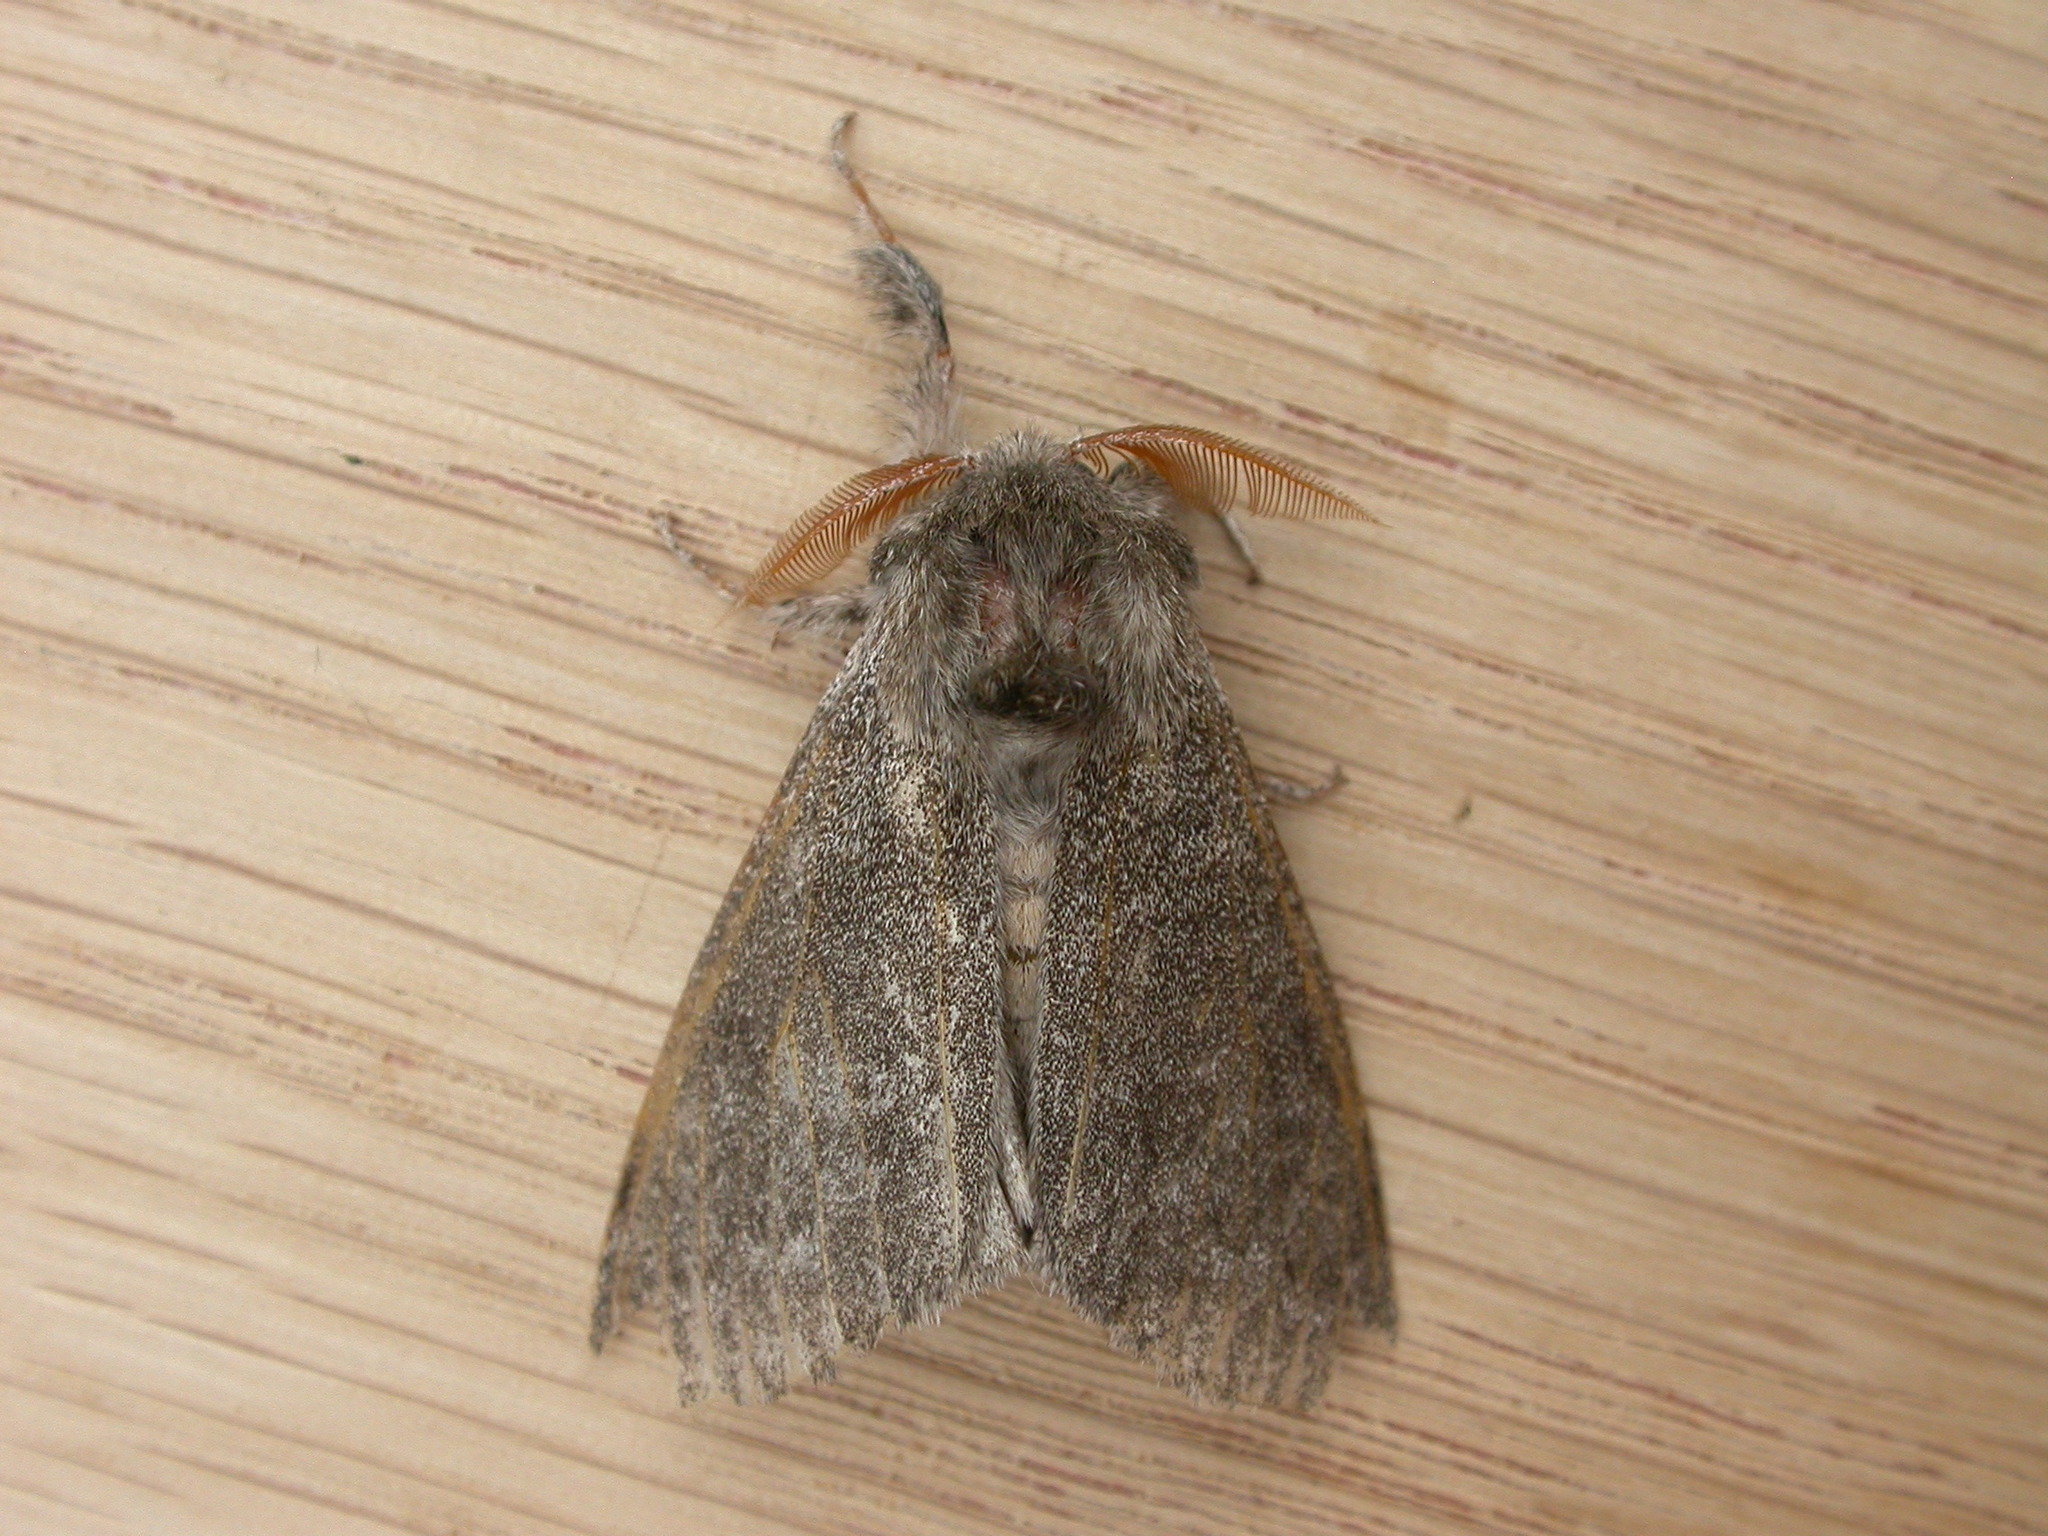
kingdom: Animalia
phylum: Arthropoda
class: Insecta
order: Lepidoptera
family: Erebidae
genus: Calliteara
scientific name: Calliteara pudibunda
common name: Pale tussock
